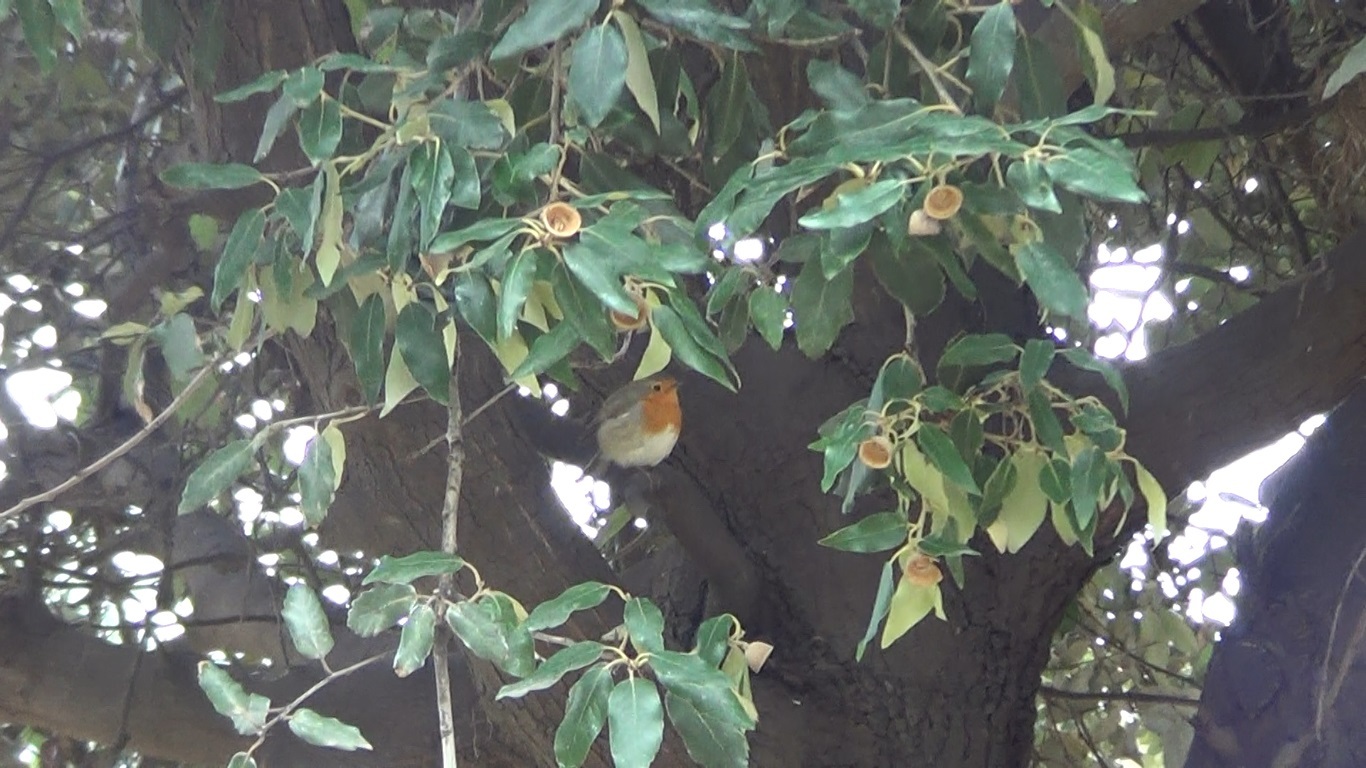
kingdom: Animalia
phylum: Chordata
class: Aves
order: Passeriformes
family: Muscicapidae
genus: Erithacus
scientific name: Erithacus rubecula
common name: European robin
